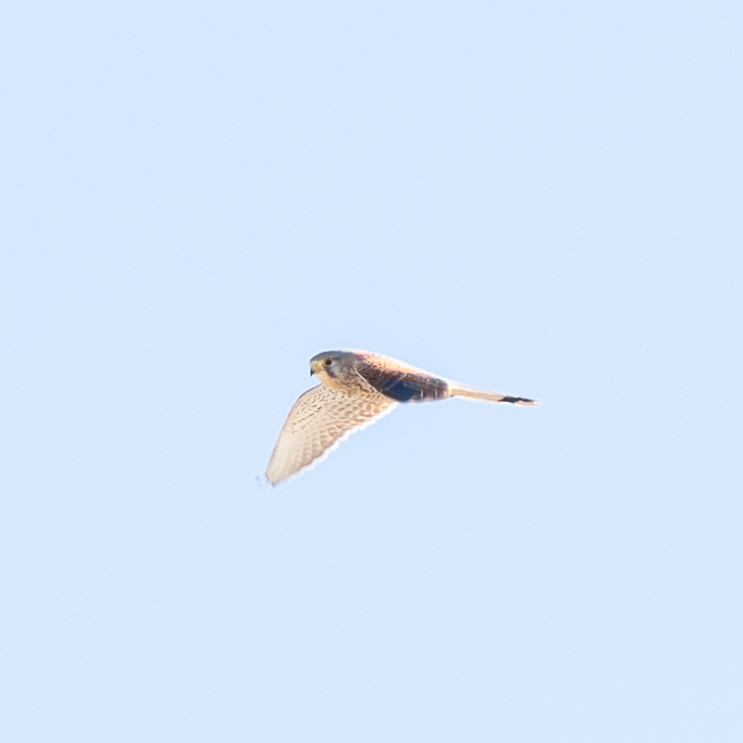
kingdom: Animalia
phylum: Chordata
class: Aves
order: Falconiformes
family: Falconidae
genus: Falco
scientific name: Falco tinnunculus
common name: Common kestrel
